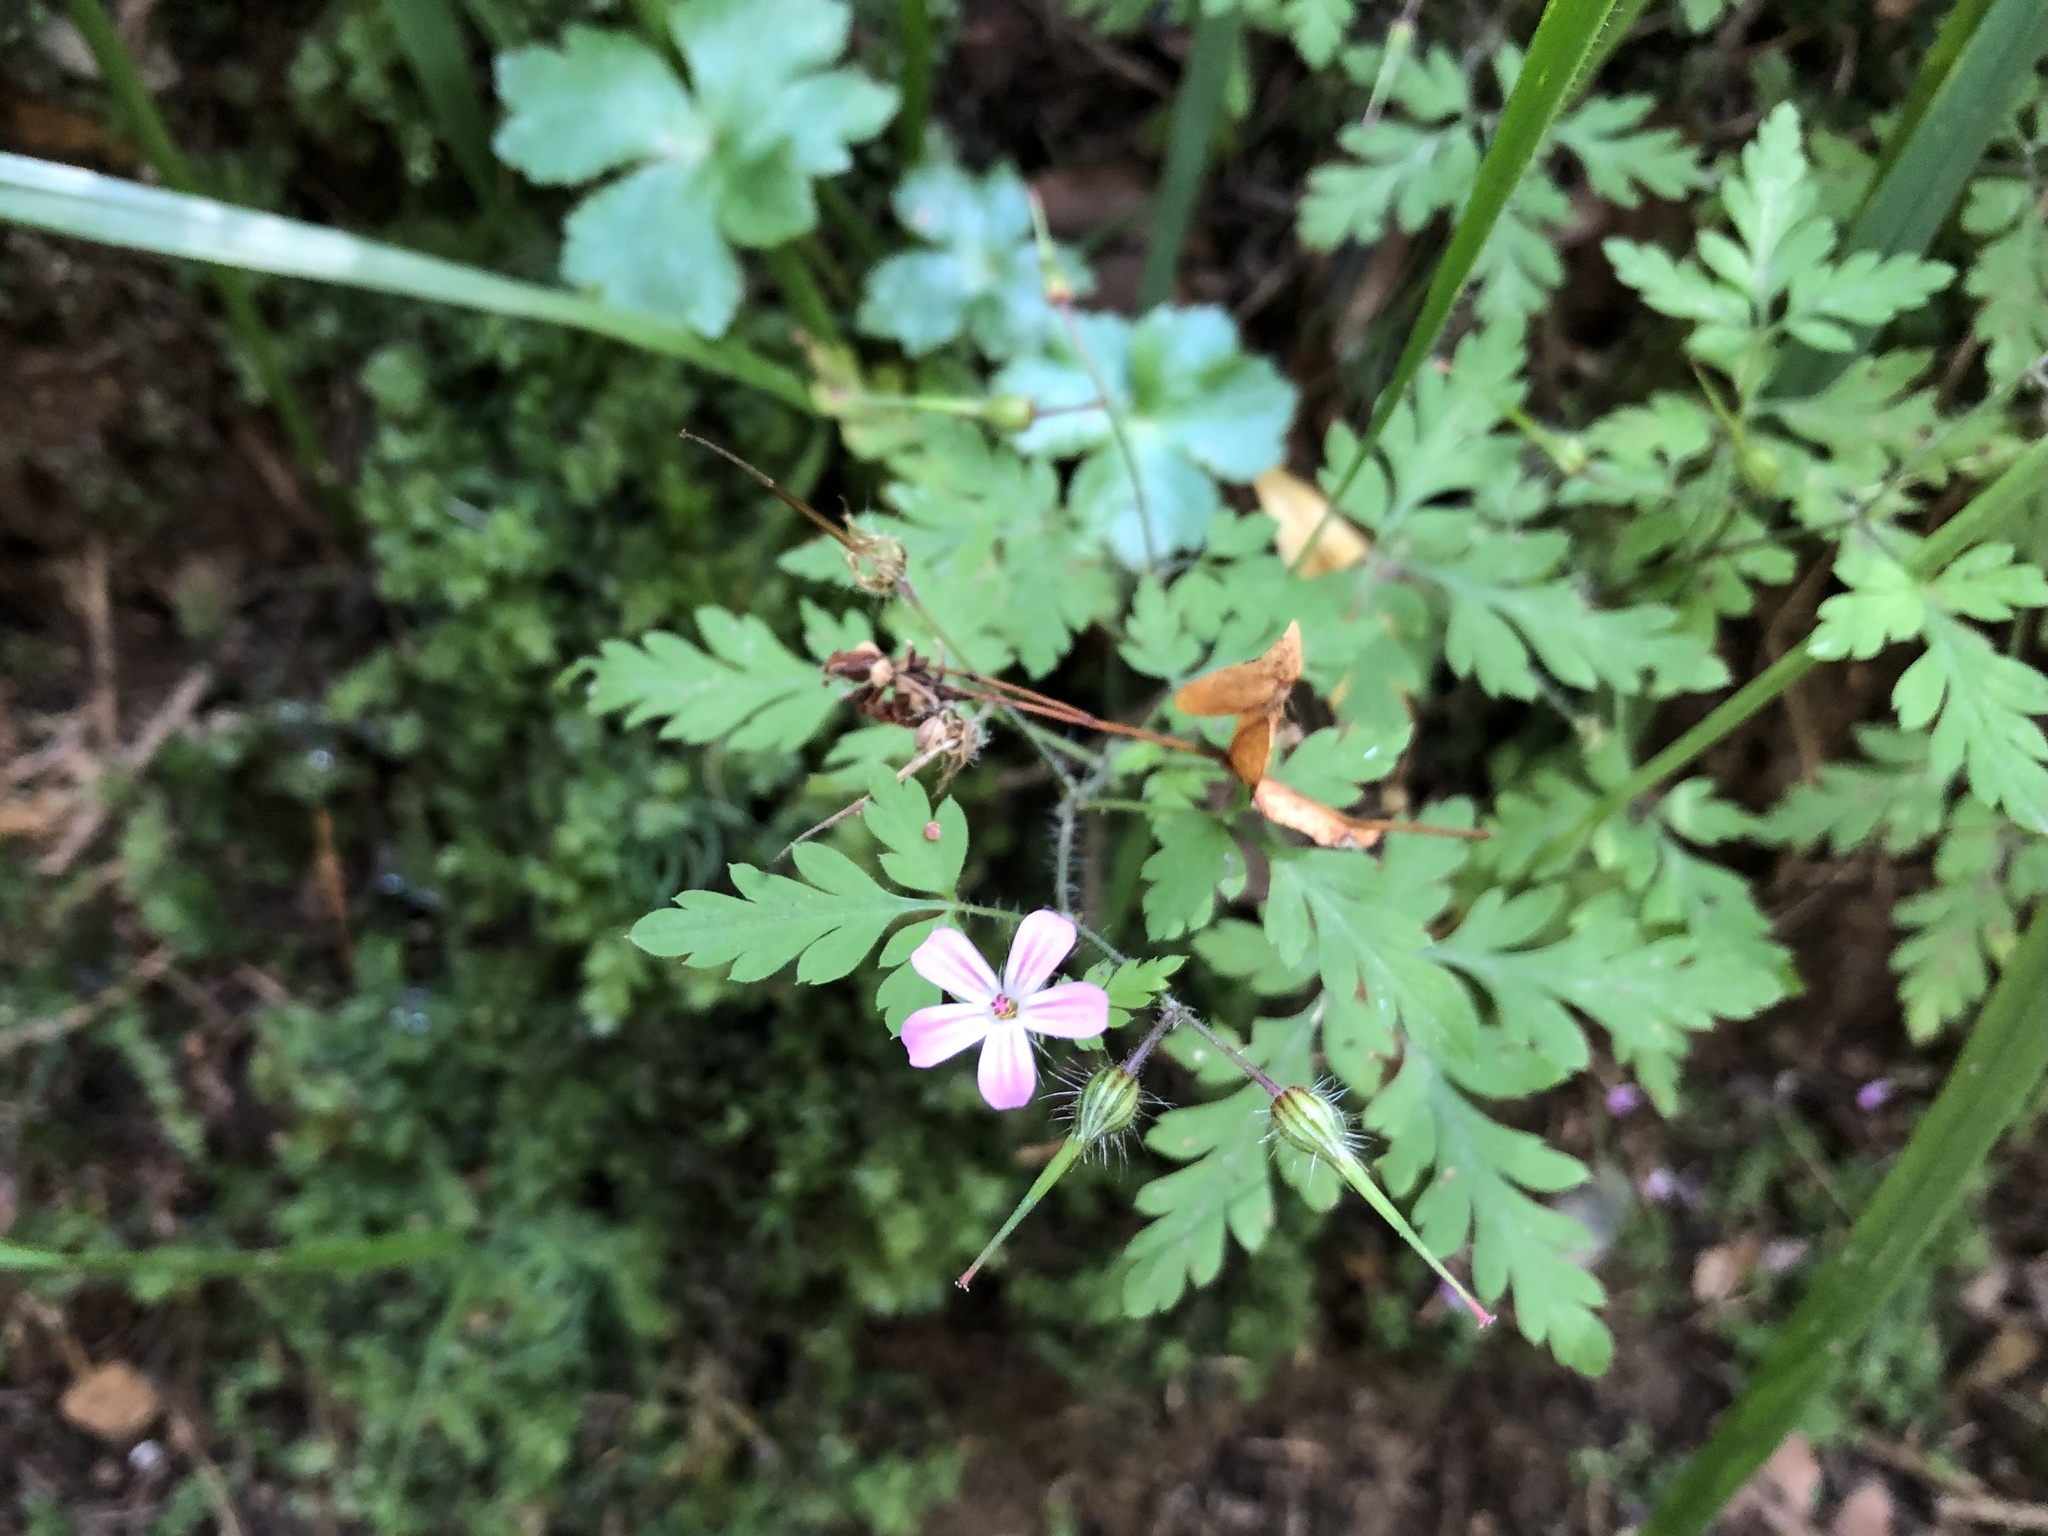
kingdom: Plantae
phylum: Tracheophyta
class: Magnoliopsida
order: Geraniales
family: Geraniaceae
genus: Geranium
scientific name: Geranium robertianum
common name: Herb-robert
